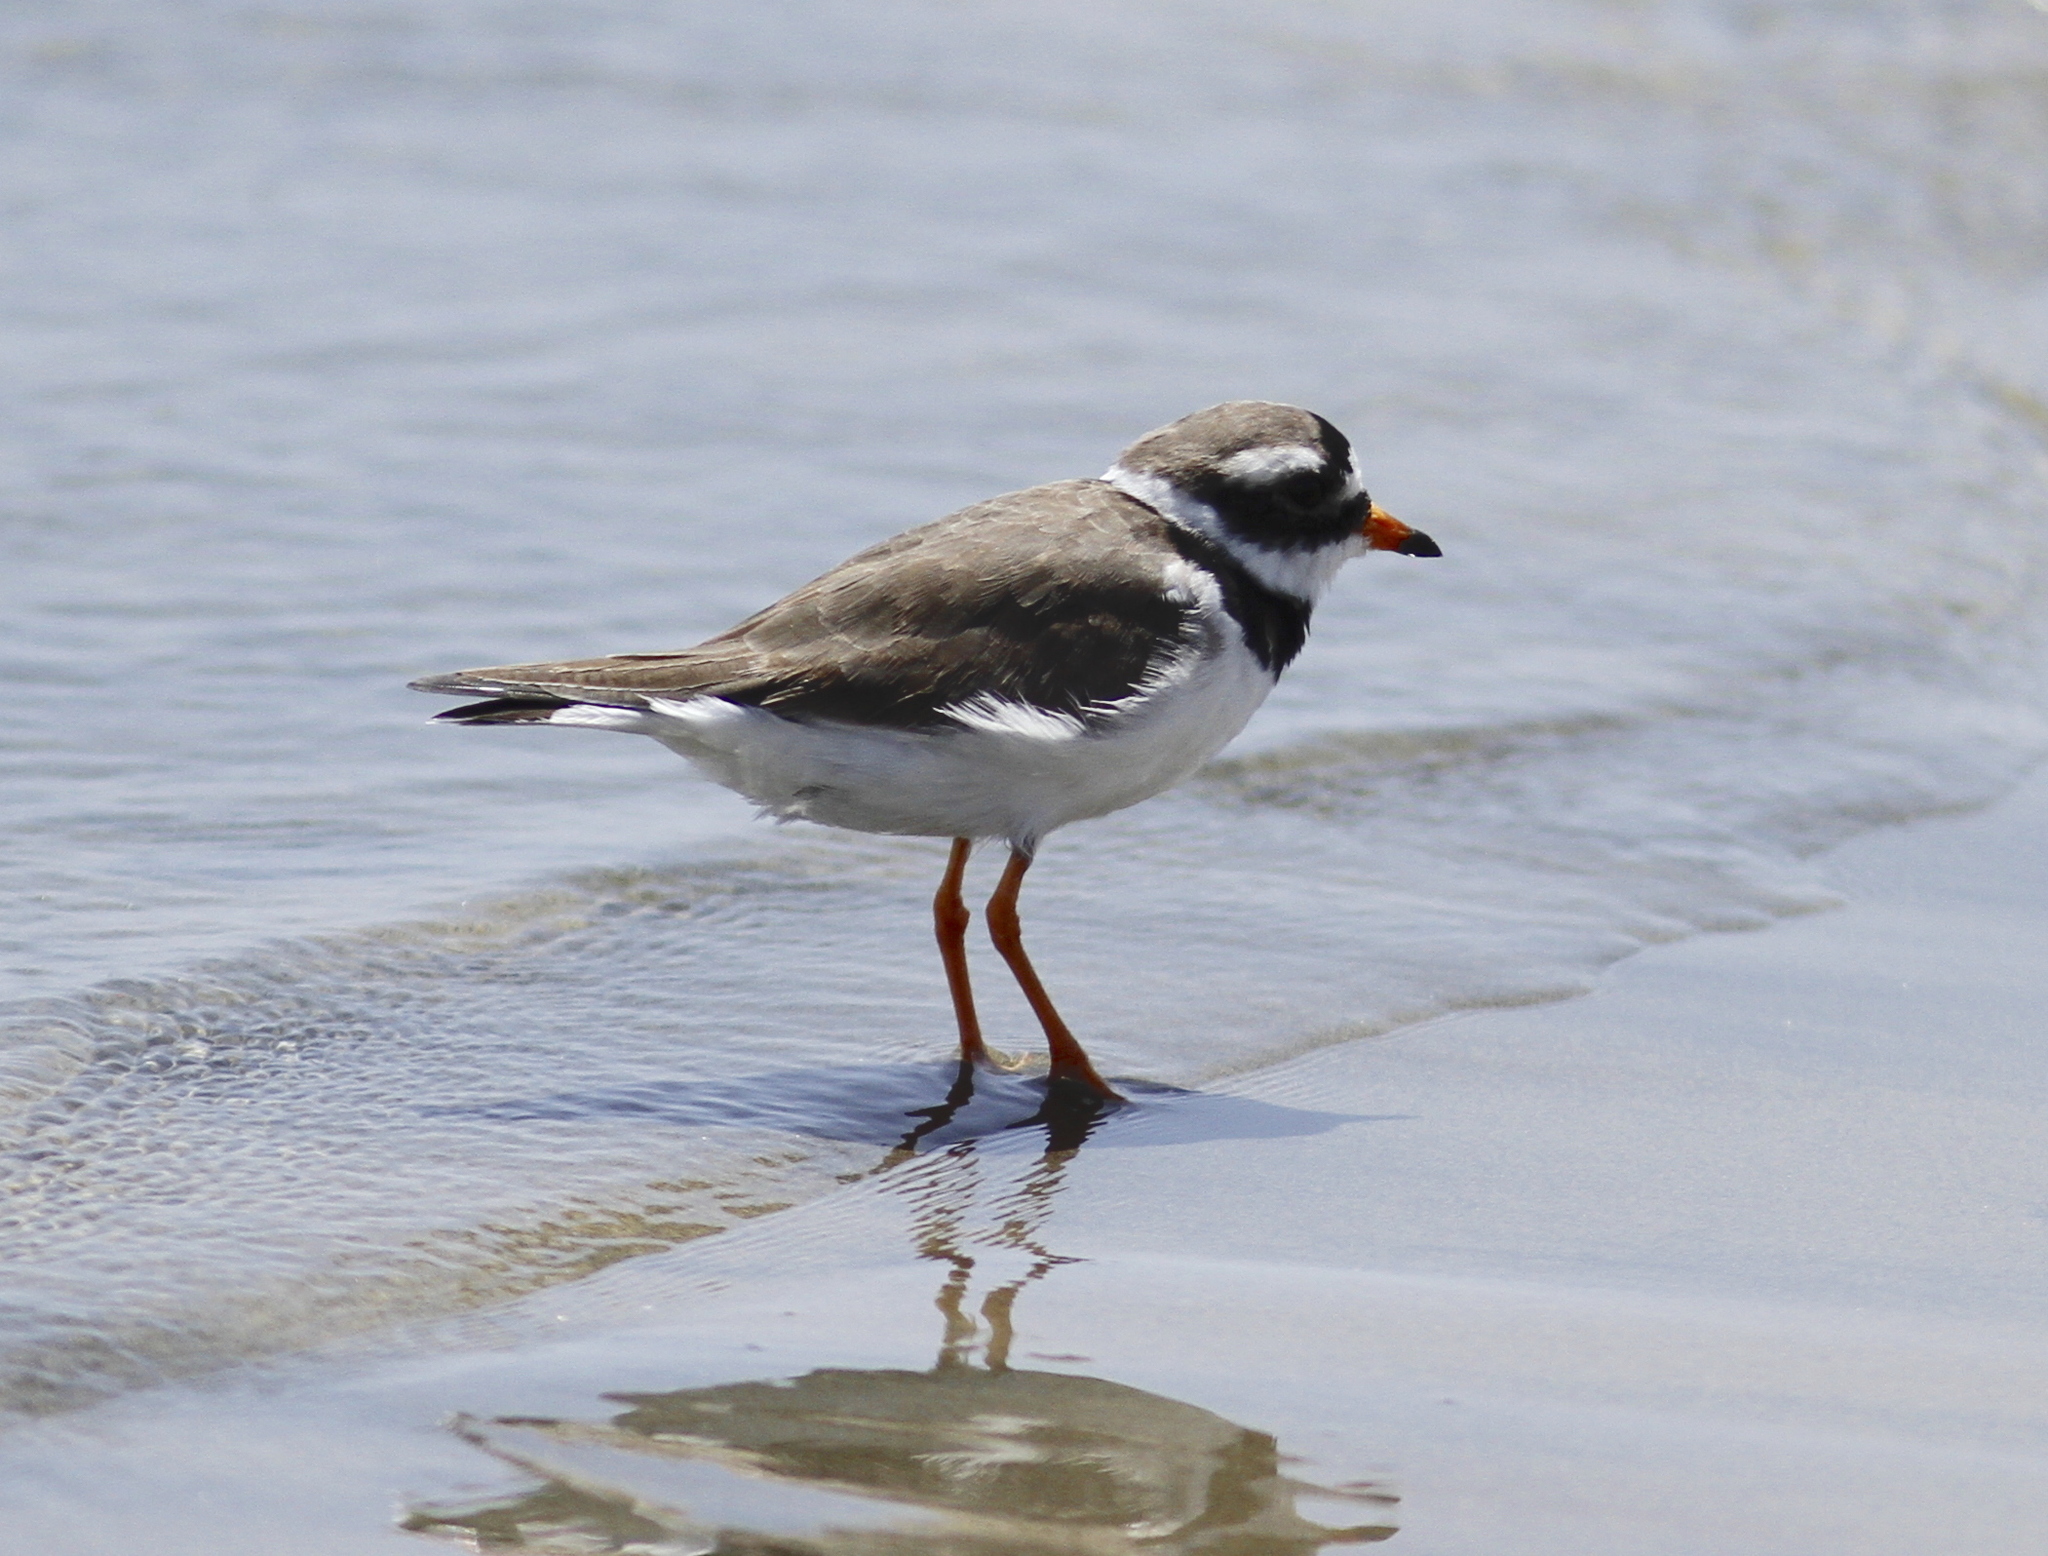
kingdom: Animalia
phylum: Chordata
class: Aves
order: Charadriiformes
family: Charadriidae
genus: Charadrius
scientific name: Charadrius hiaticula
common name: Common ringed plover
